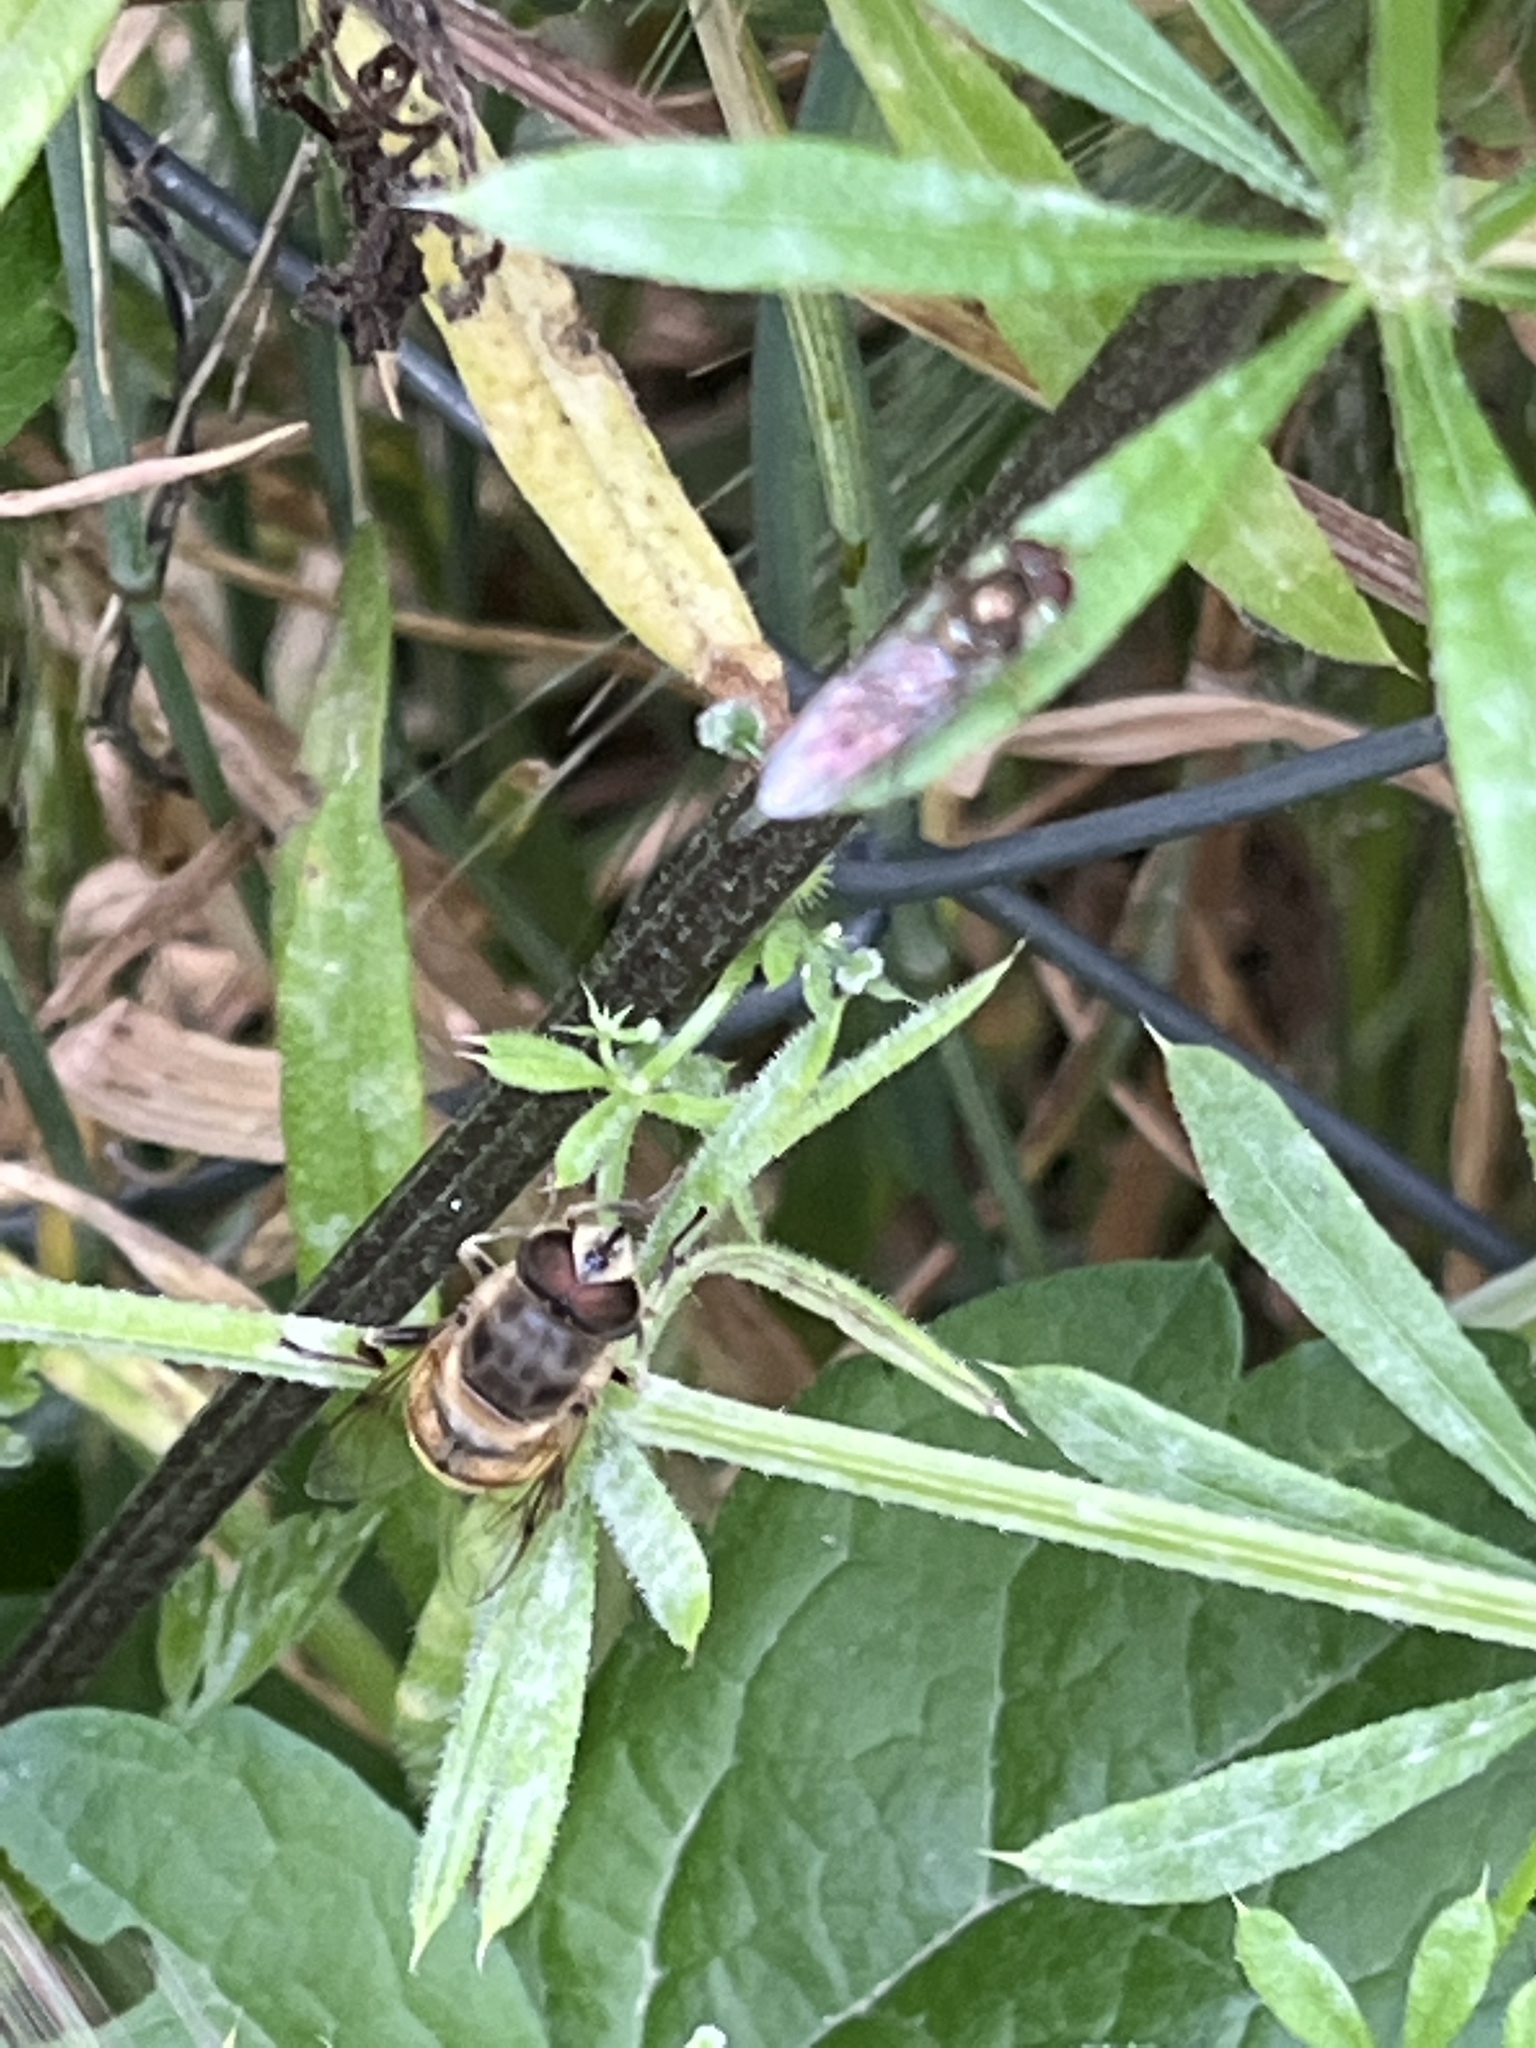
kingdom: Animalia
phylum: Arthropoda
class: Insecta
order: Diptera
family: Syrphidae
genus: Eristalis
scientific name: Eristalis tenax
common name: Drone fly
